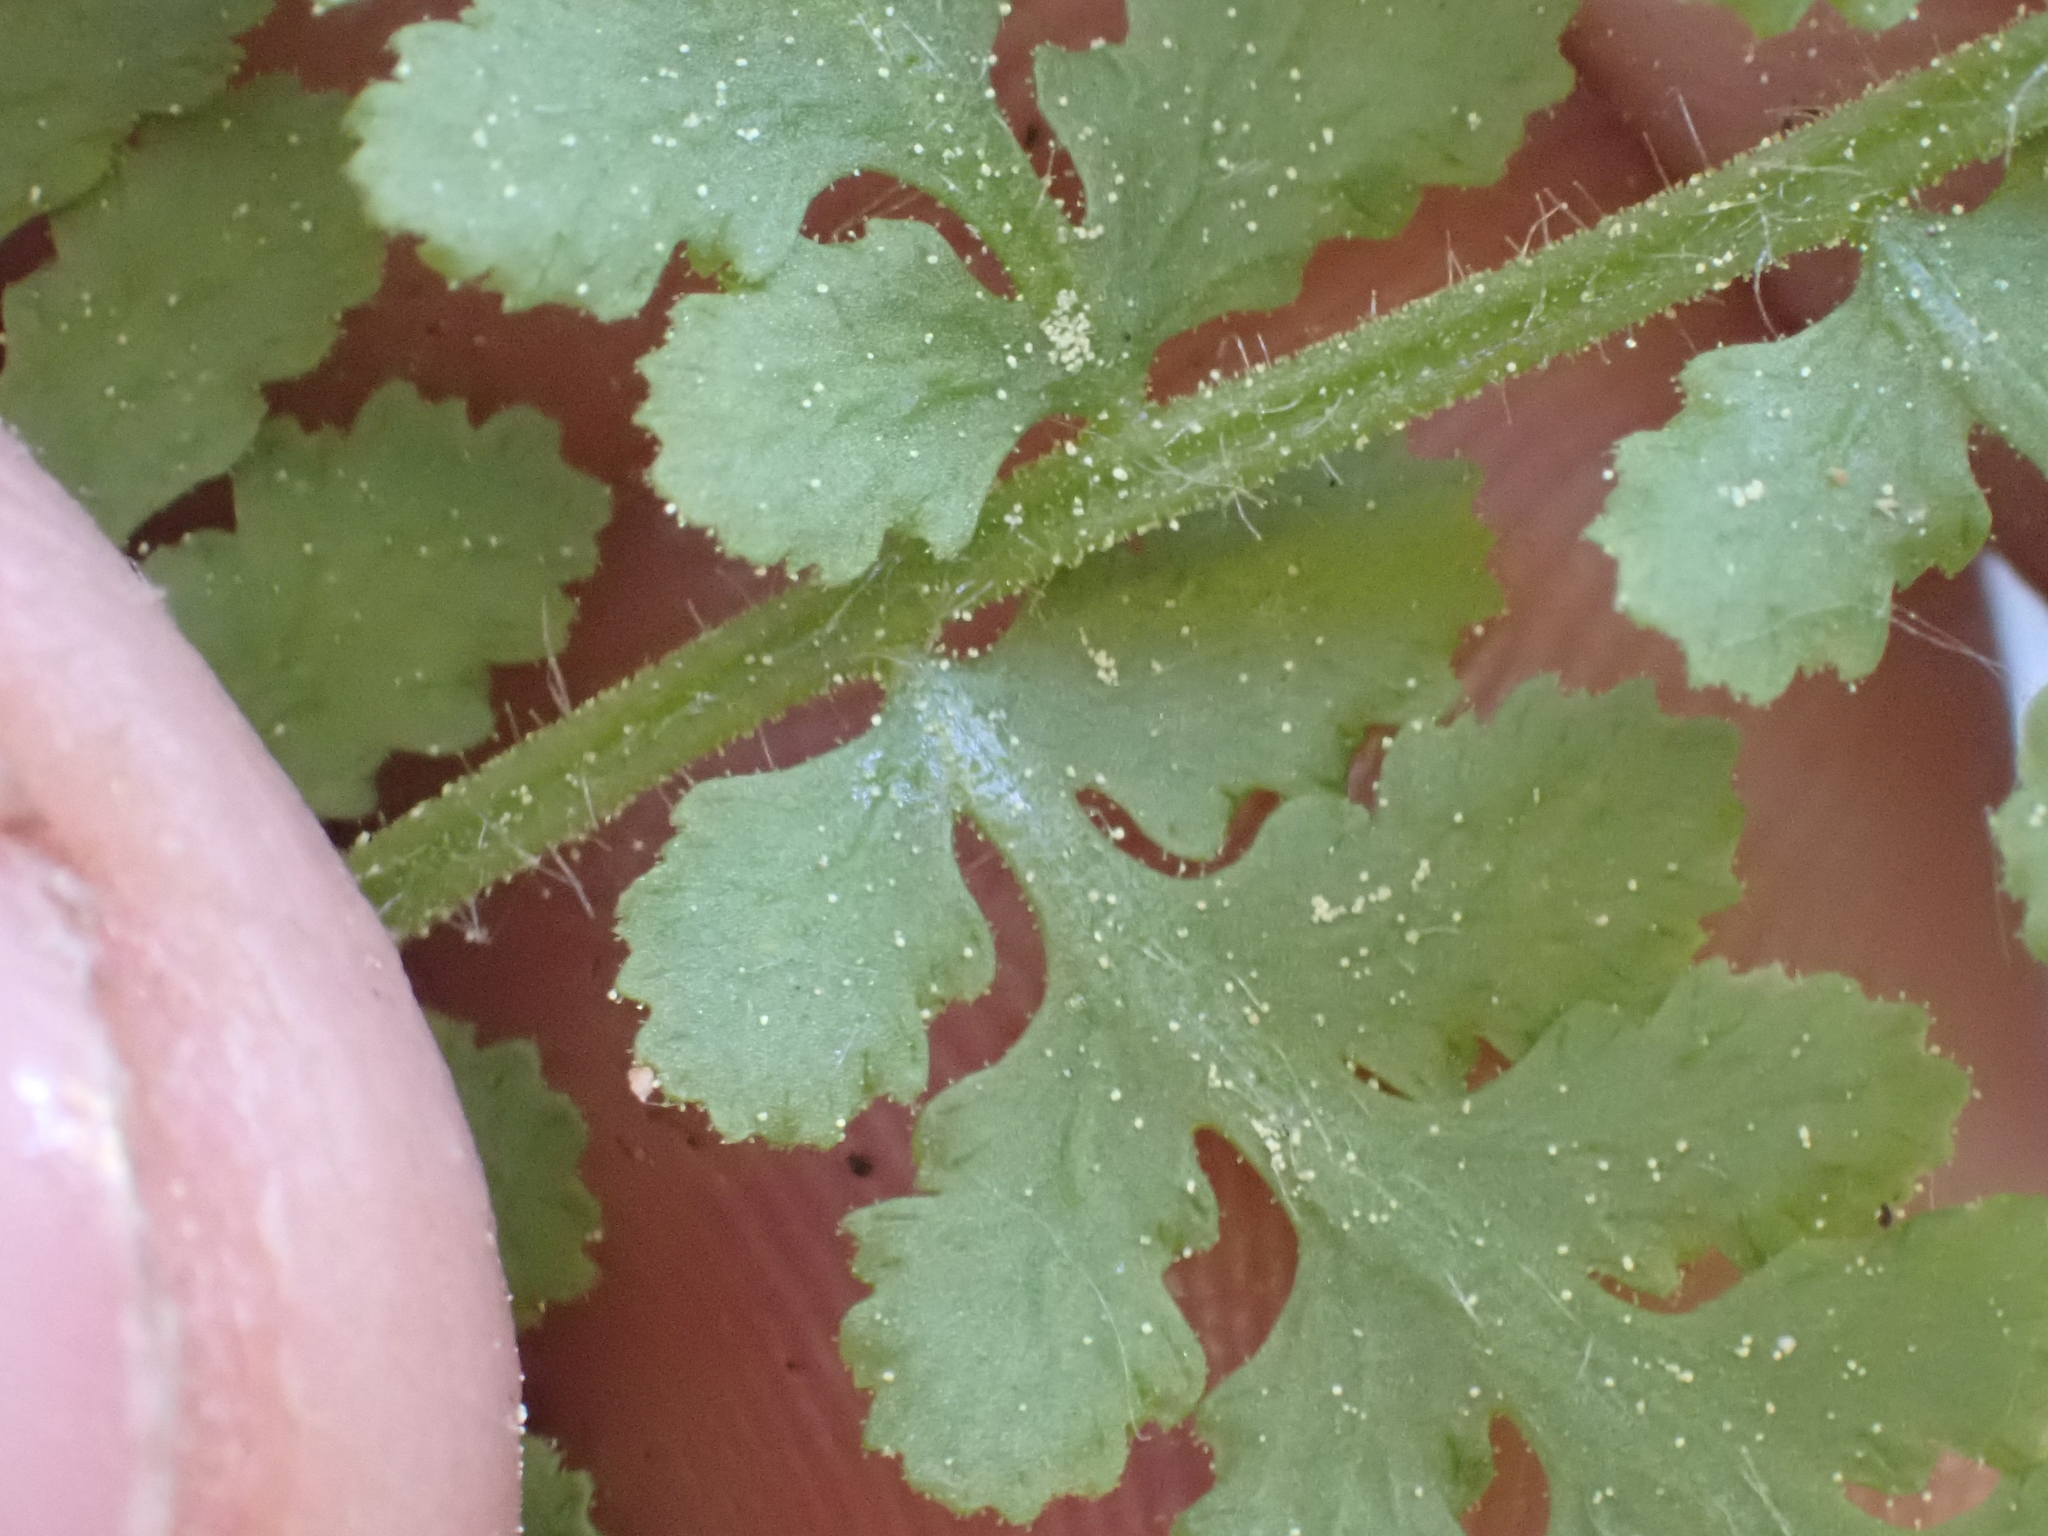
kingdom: Plantae
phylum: Tracheophyta
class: Polypodiopsida
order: Polypodiales
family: Woodsiaceae
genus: Physematium
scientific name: Physematium scopulinum
